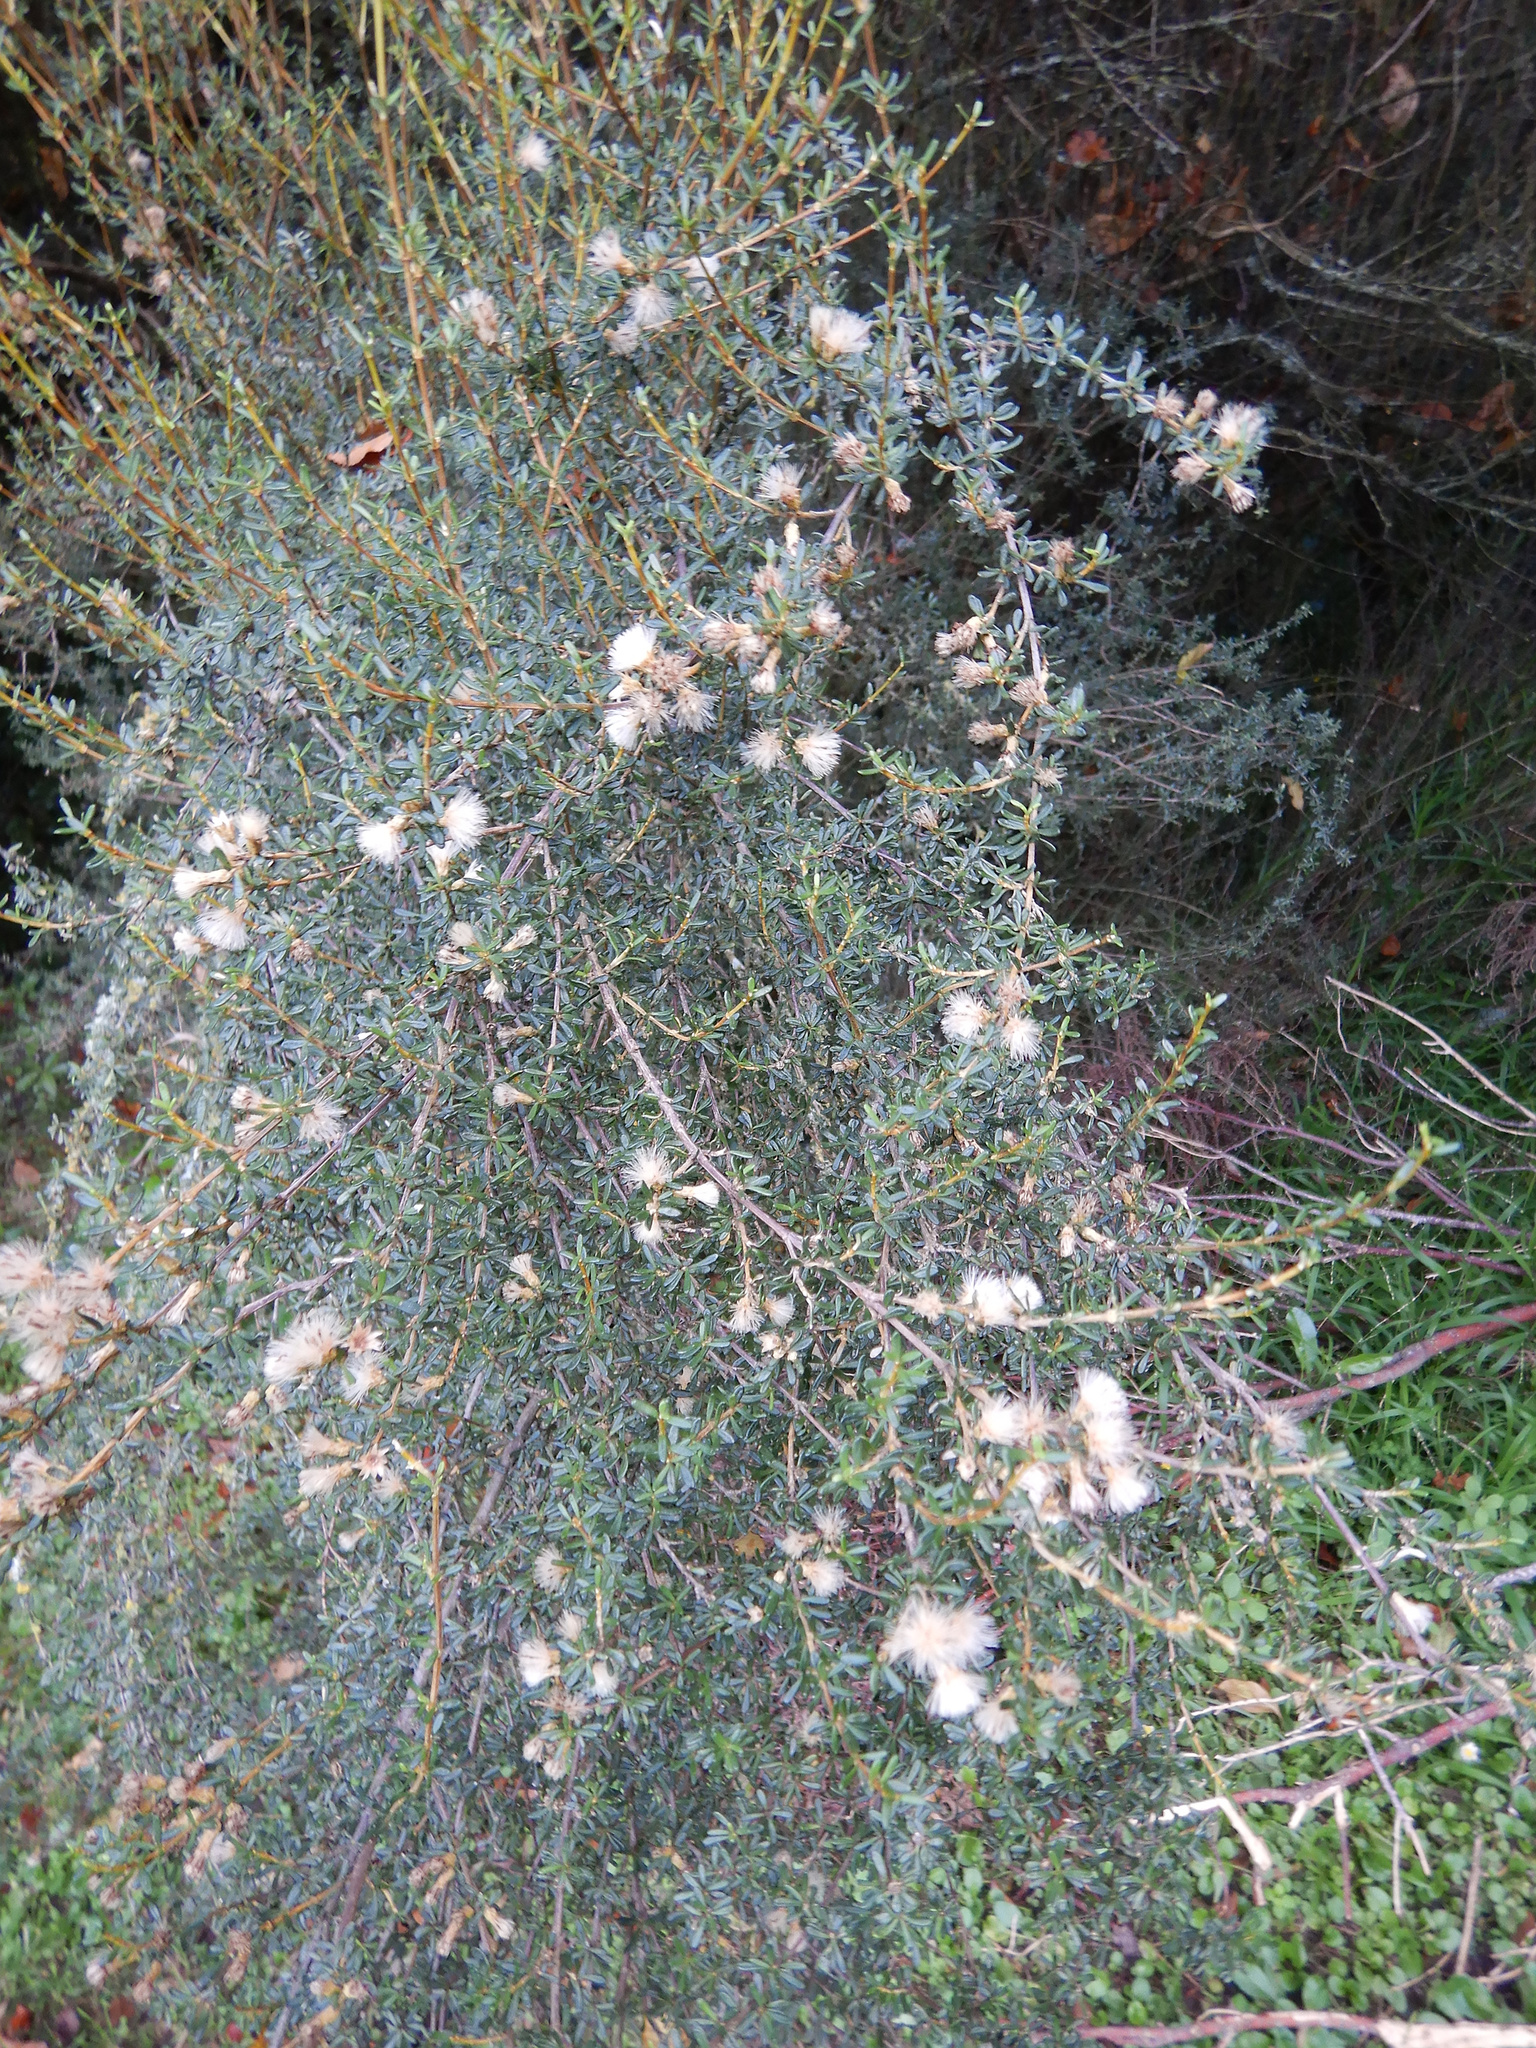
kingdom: Plantae
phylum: Tracheophyta
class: Magnoliopsida
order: Asterales
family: Asteraceae
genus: Olearia
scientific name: Olearia solandri
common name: Coastal daisybush
